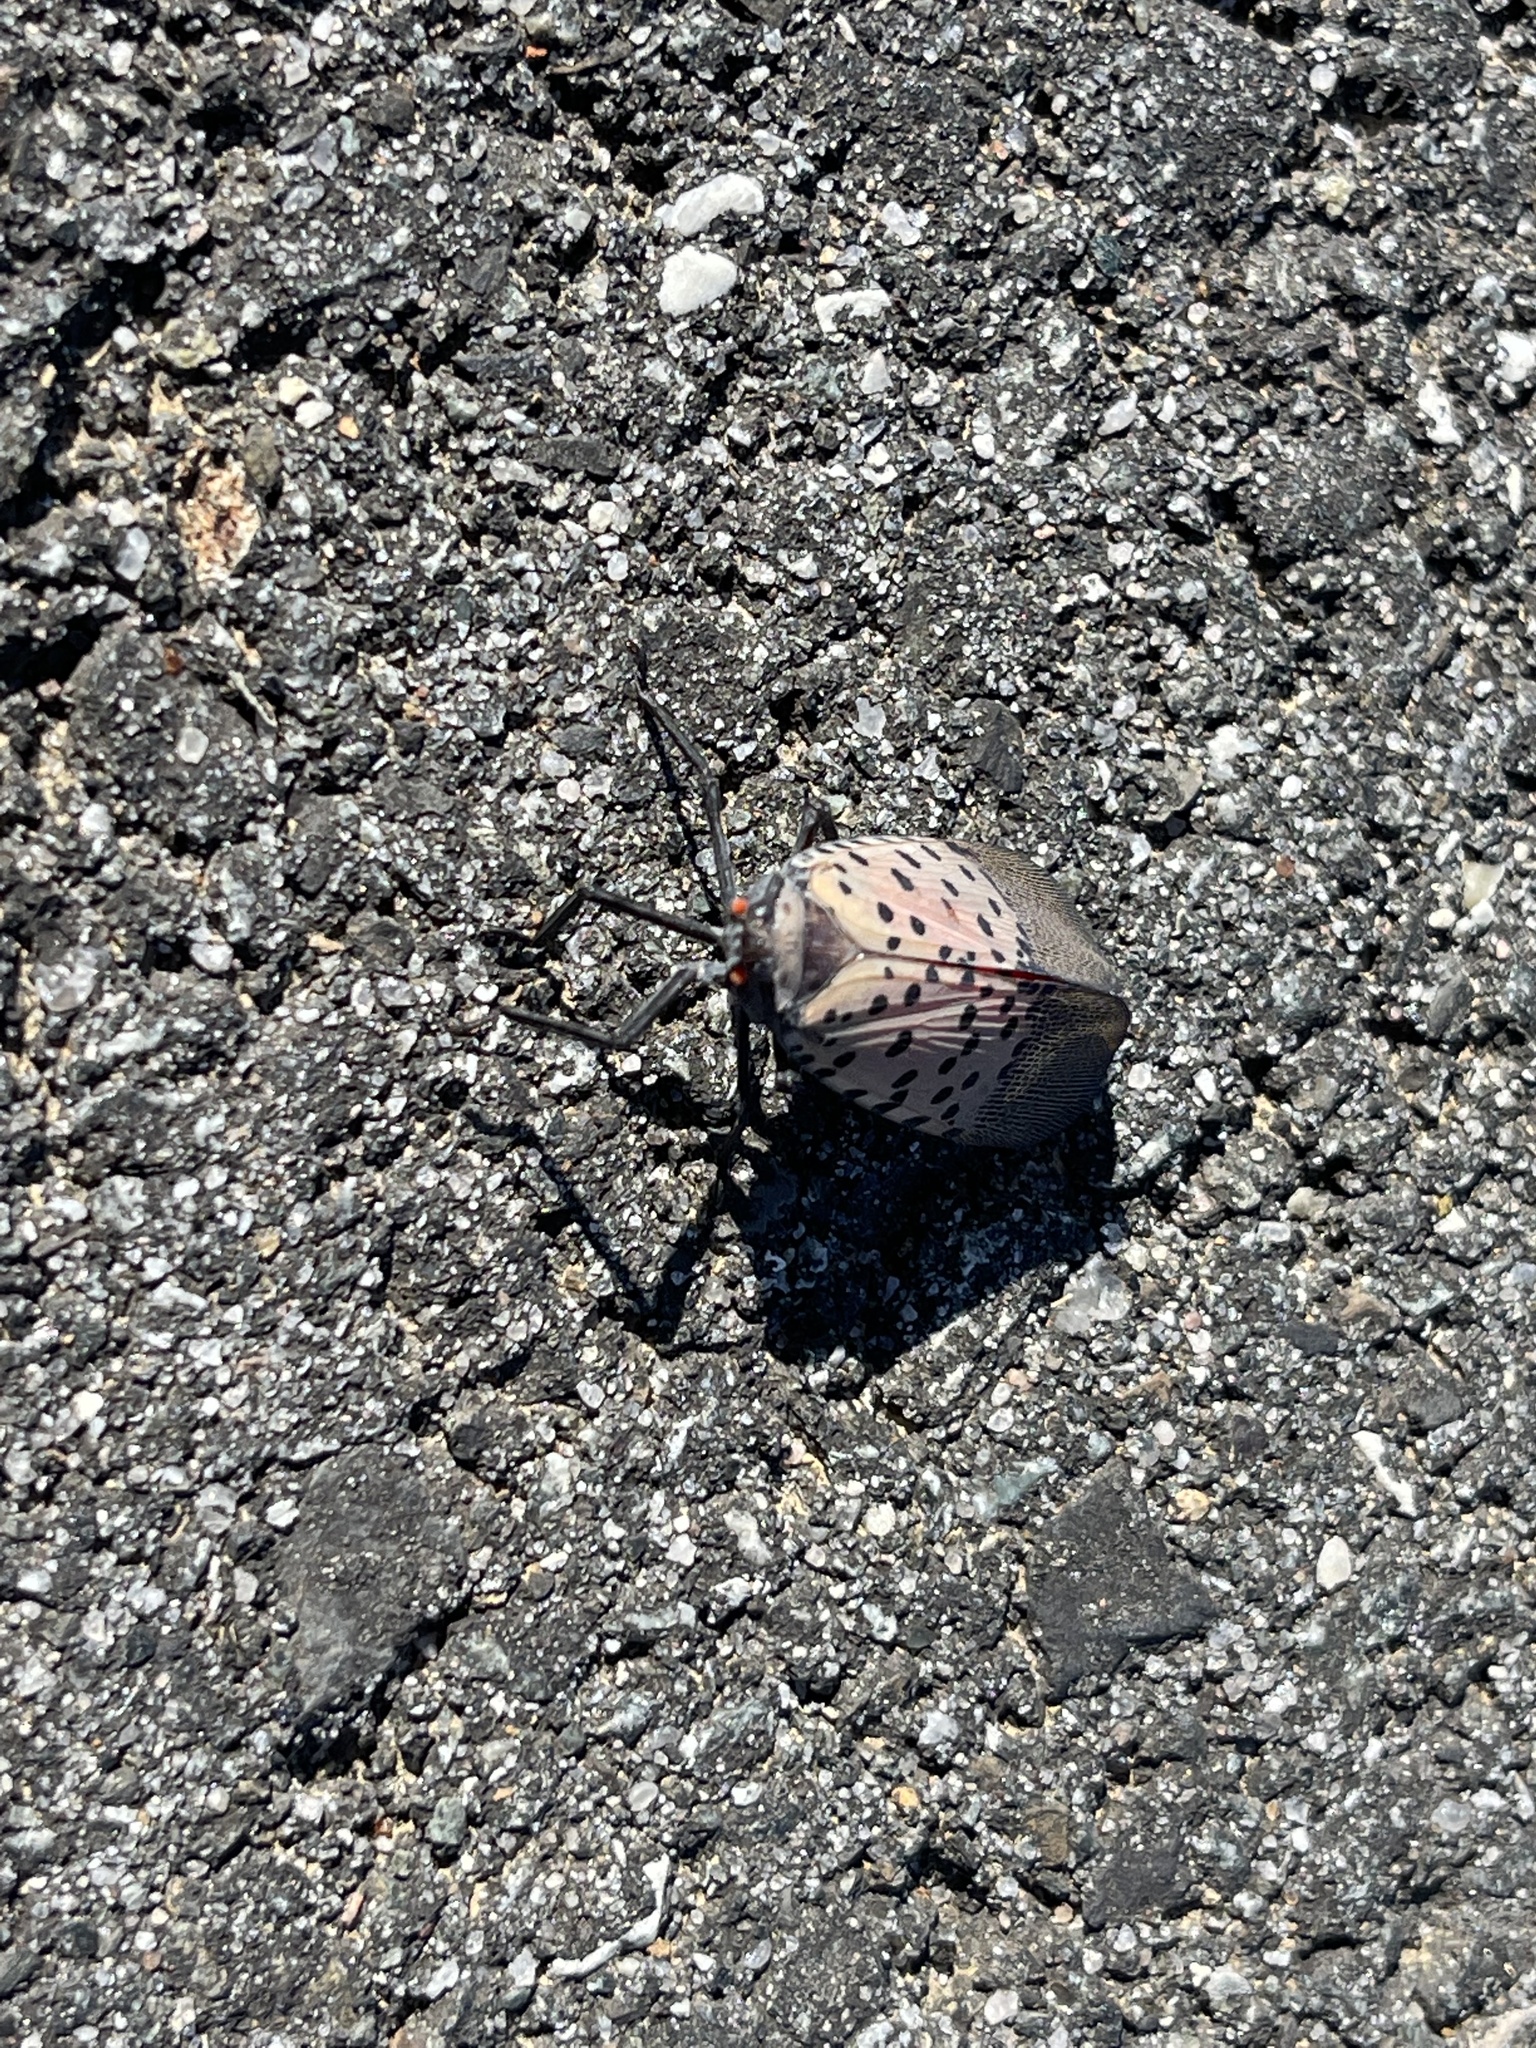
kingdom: Animalia
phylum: Arthropoda
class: Insecta
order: Hemiptera
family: Fulgoridae
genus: Lycorma
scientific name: Lycorma delicatula
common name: Spotted lanternfly
